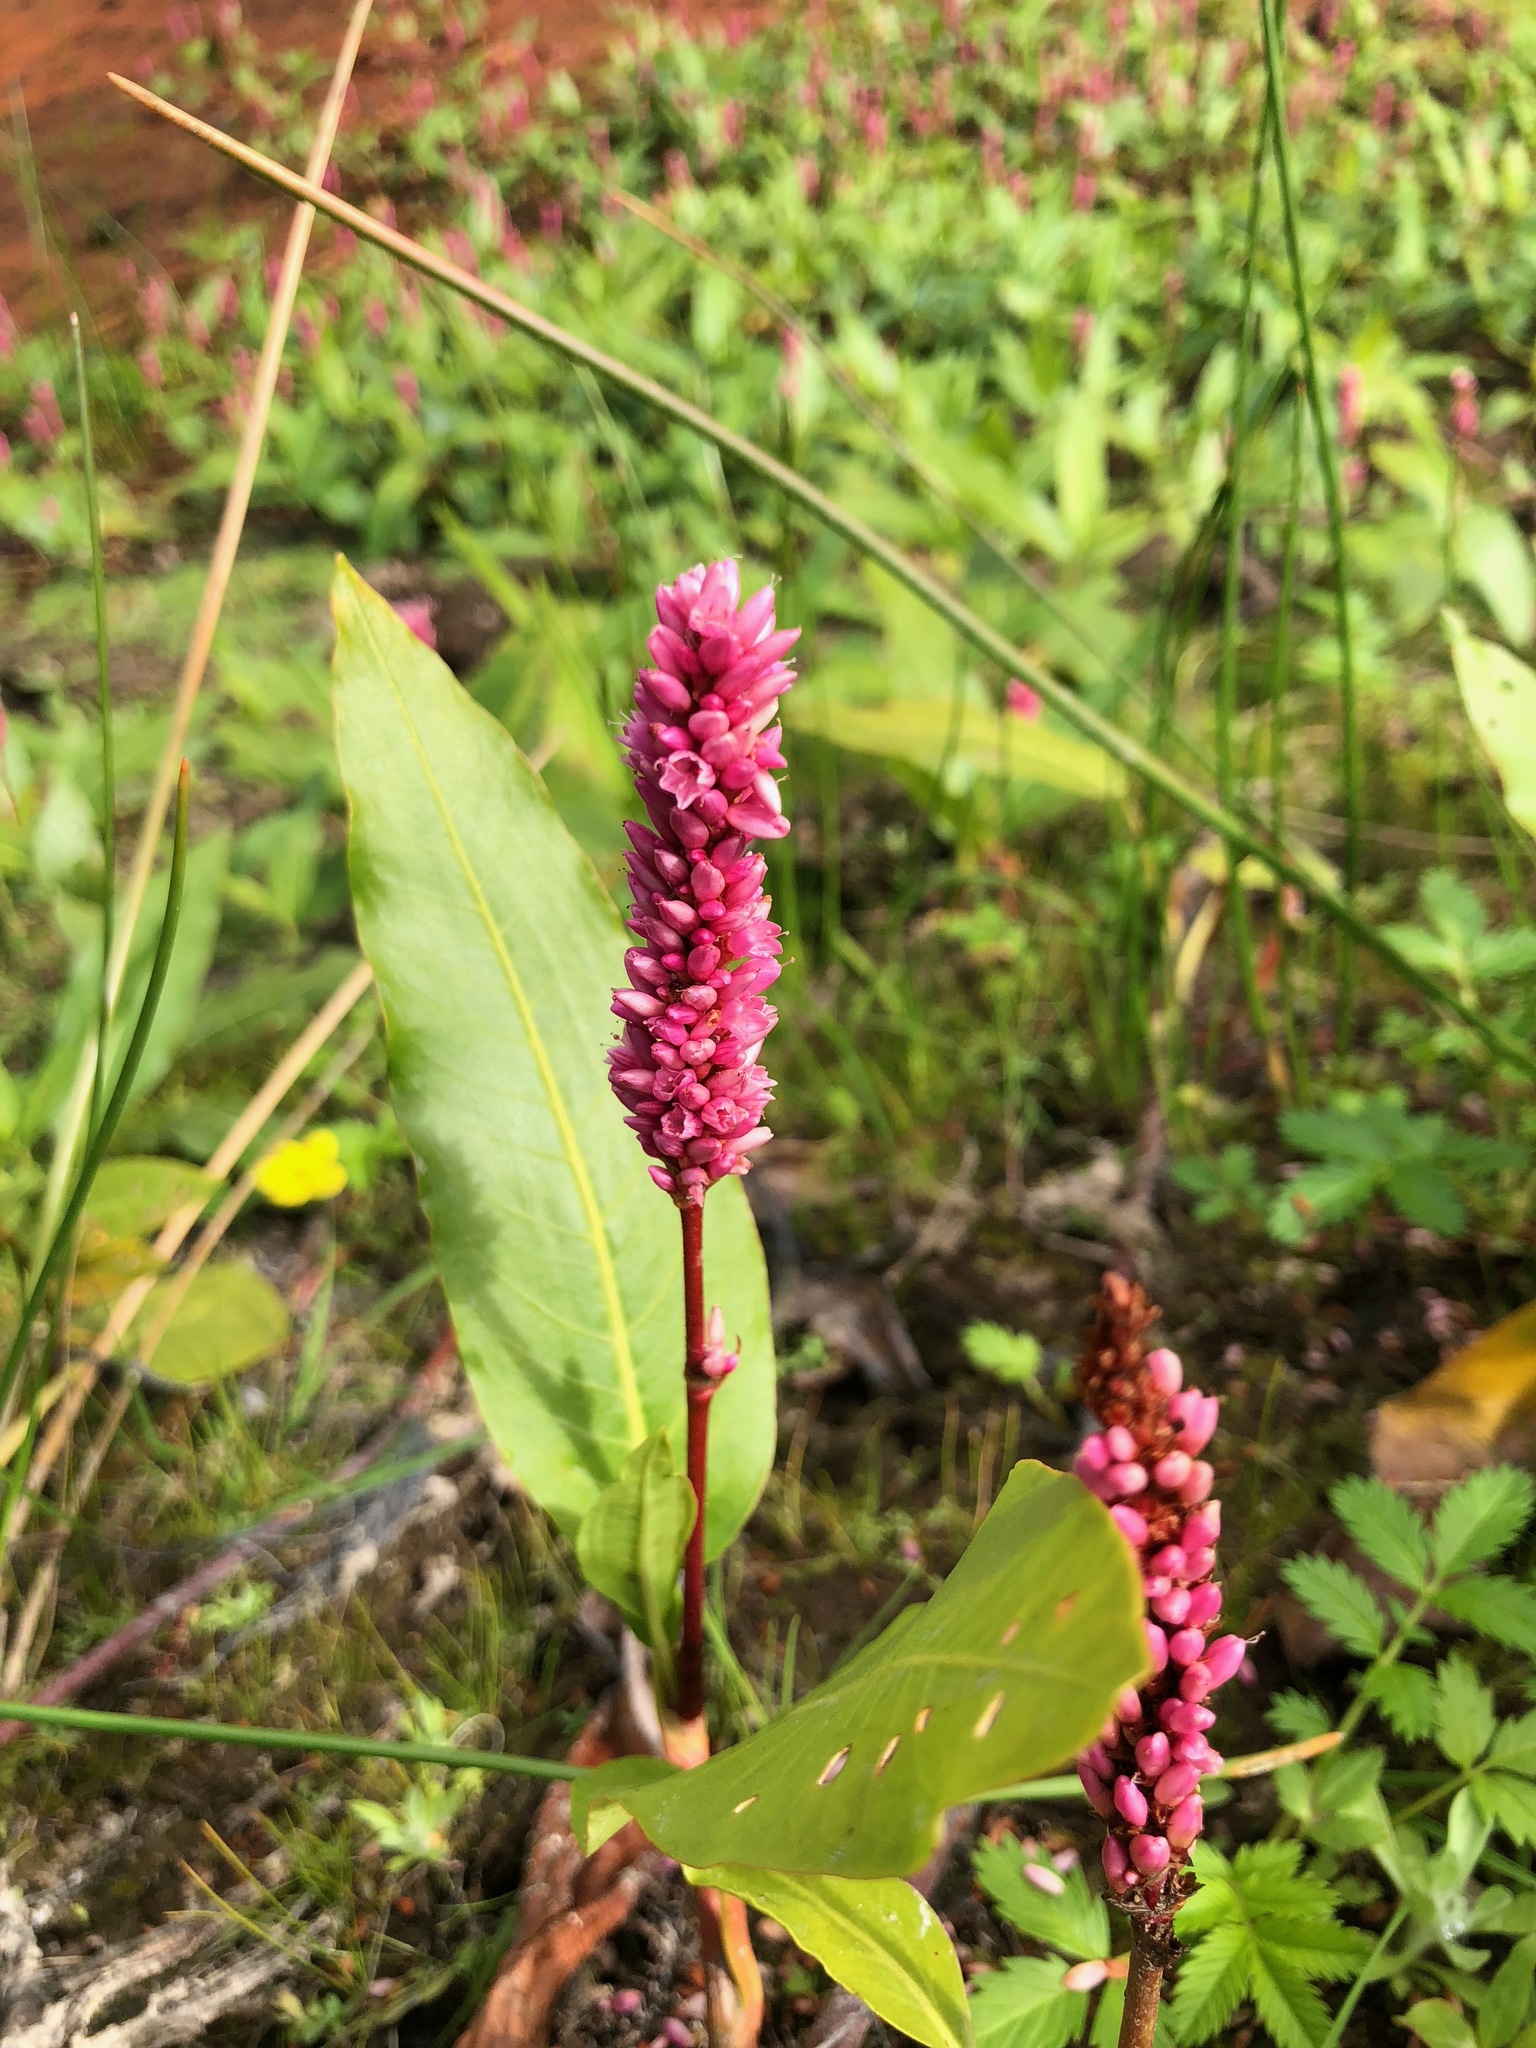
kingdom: Plantae
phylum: Tracheophyta
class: Magnoliopsida
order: Caryophyllales
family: Polygonaceae
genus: Persicaria
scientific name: Persicaria amphibia
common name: Amphibious bistort
